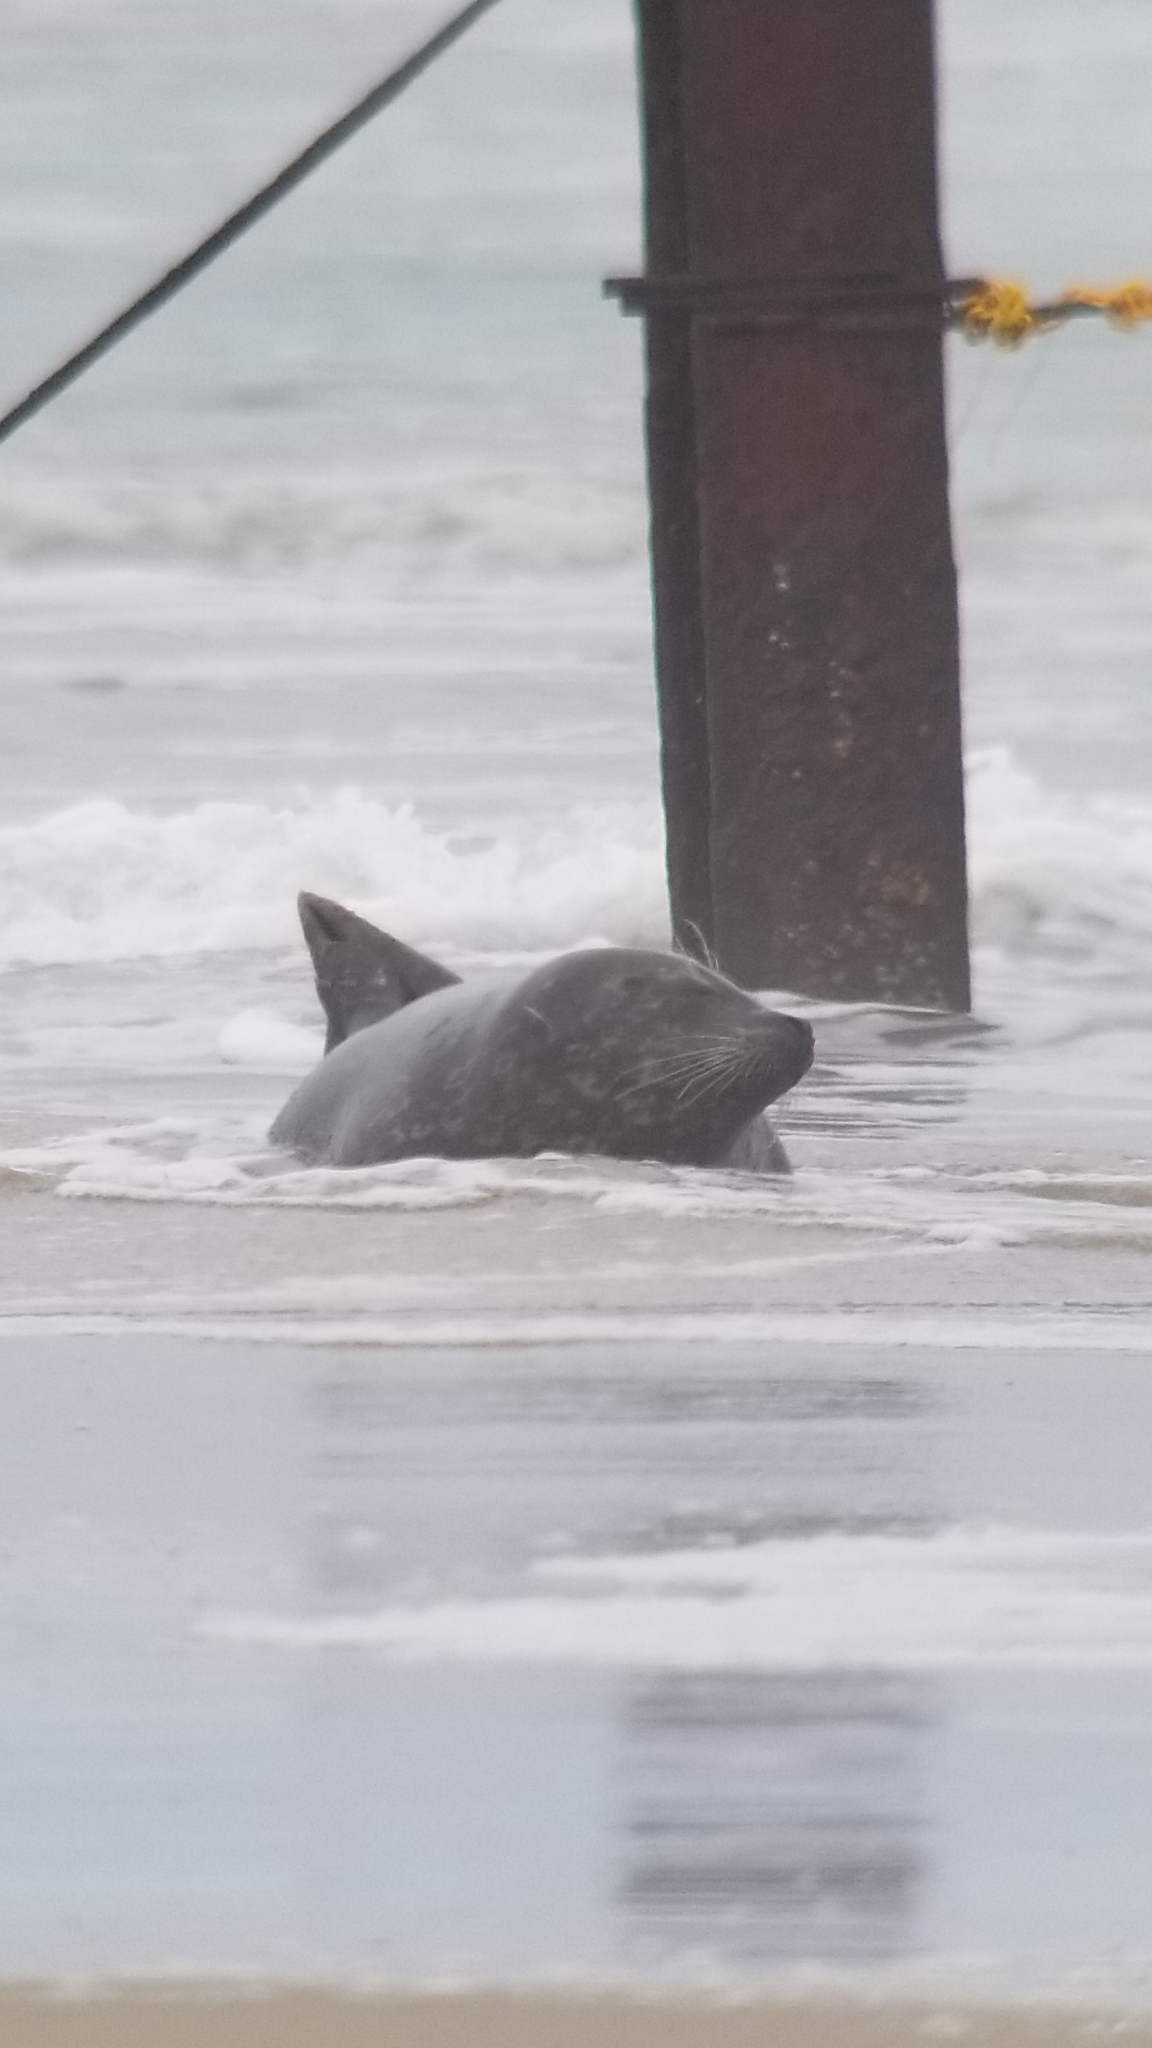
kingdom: Animalia
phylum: Chordata
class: Mammalia
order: Carnivora
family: Phocidae
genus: Phoca
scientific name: Phoca vitulina
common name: Harbor seal
